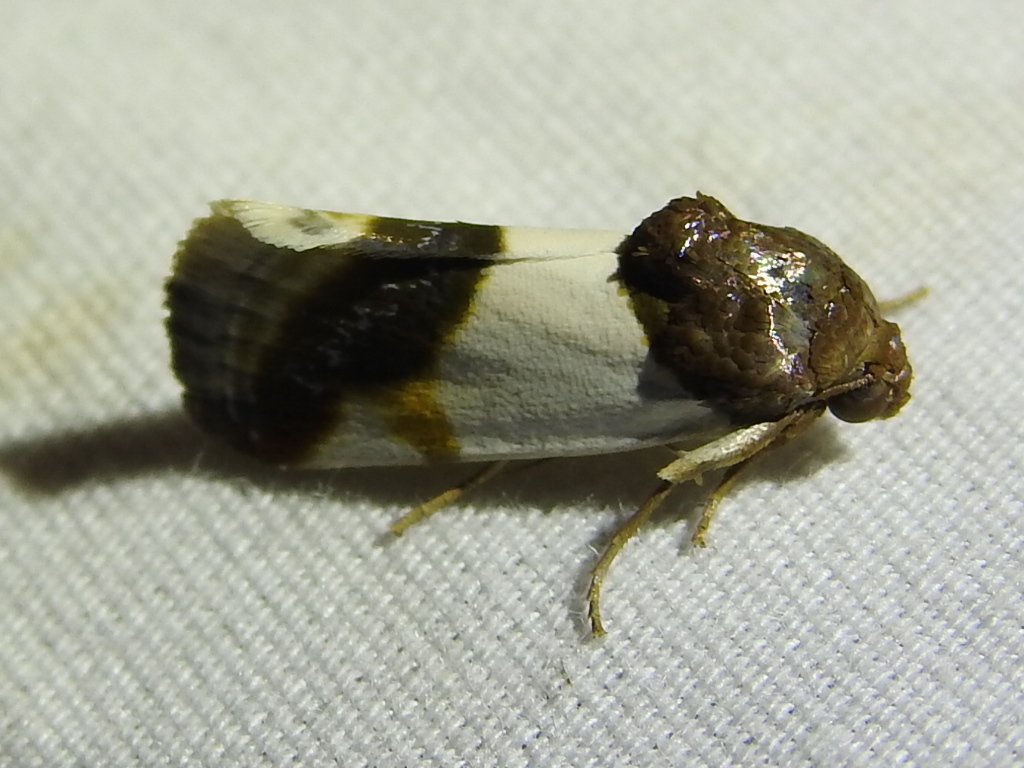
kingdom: Animalia
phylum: Arthropoda
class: Insecta
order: Lepidoptera
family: Noctuidae
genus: Acontia
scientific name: Acontia Tarache lactipennis
